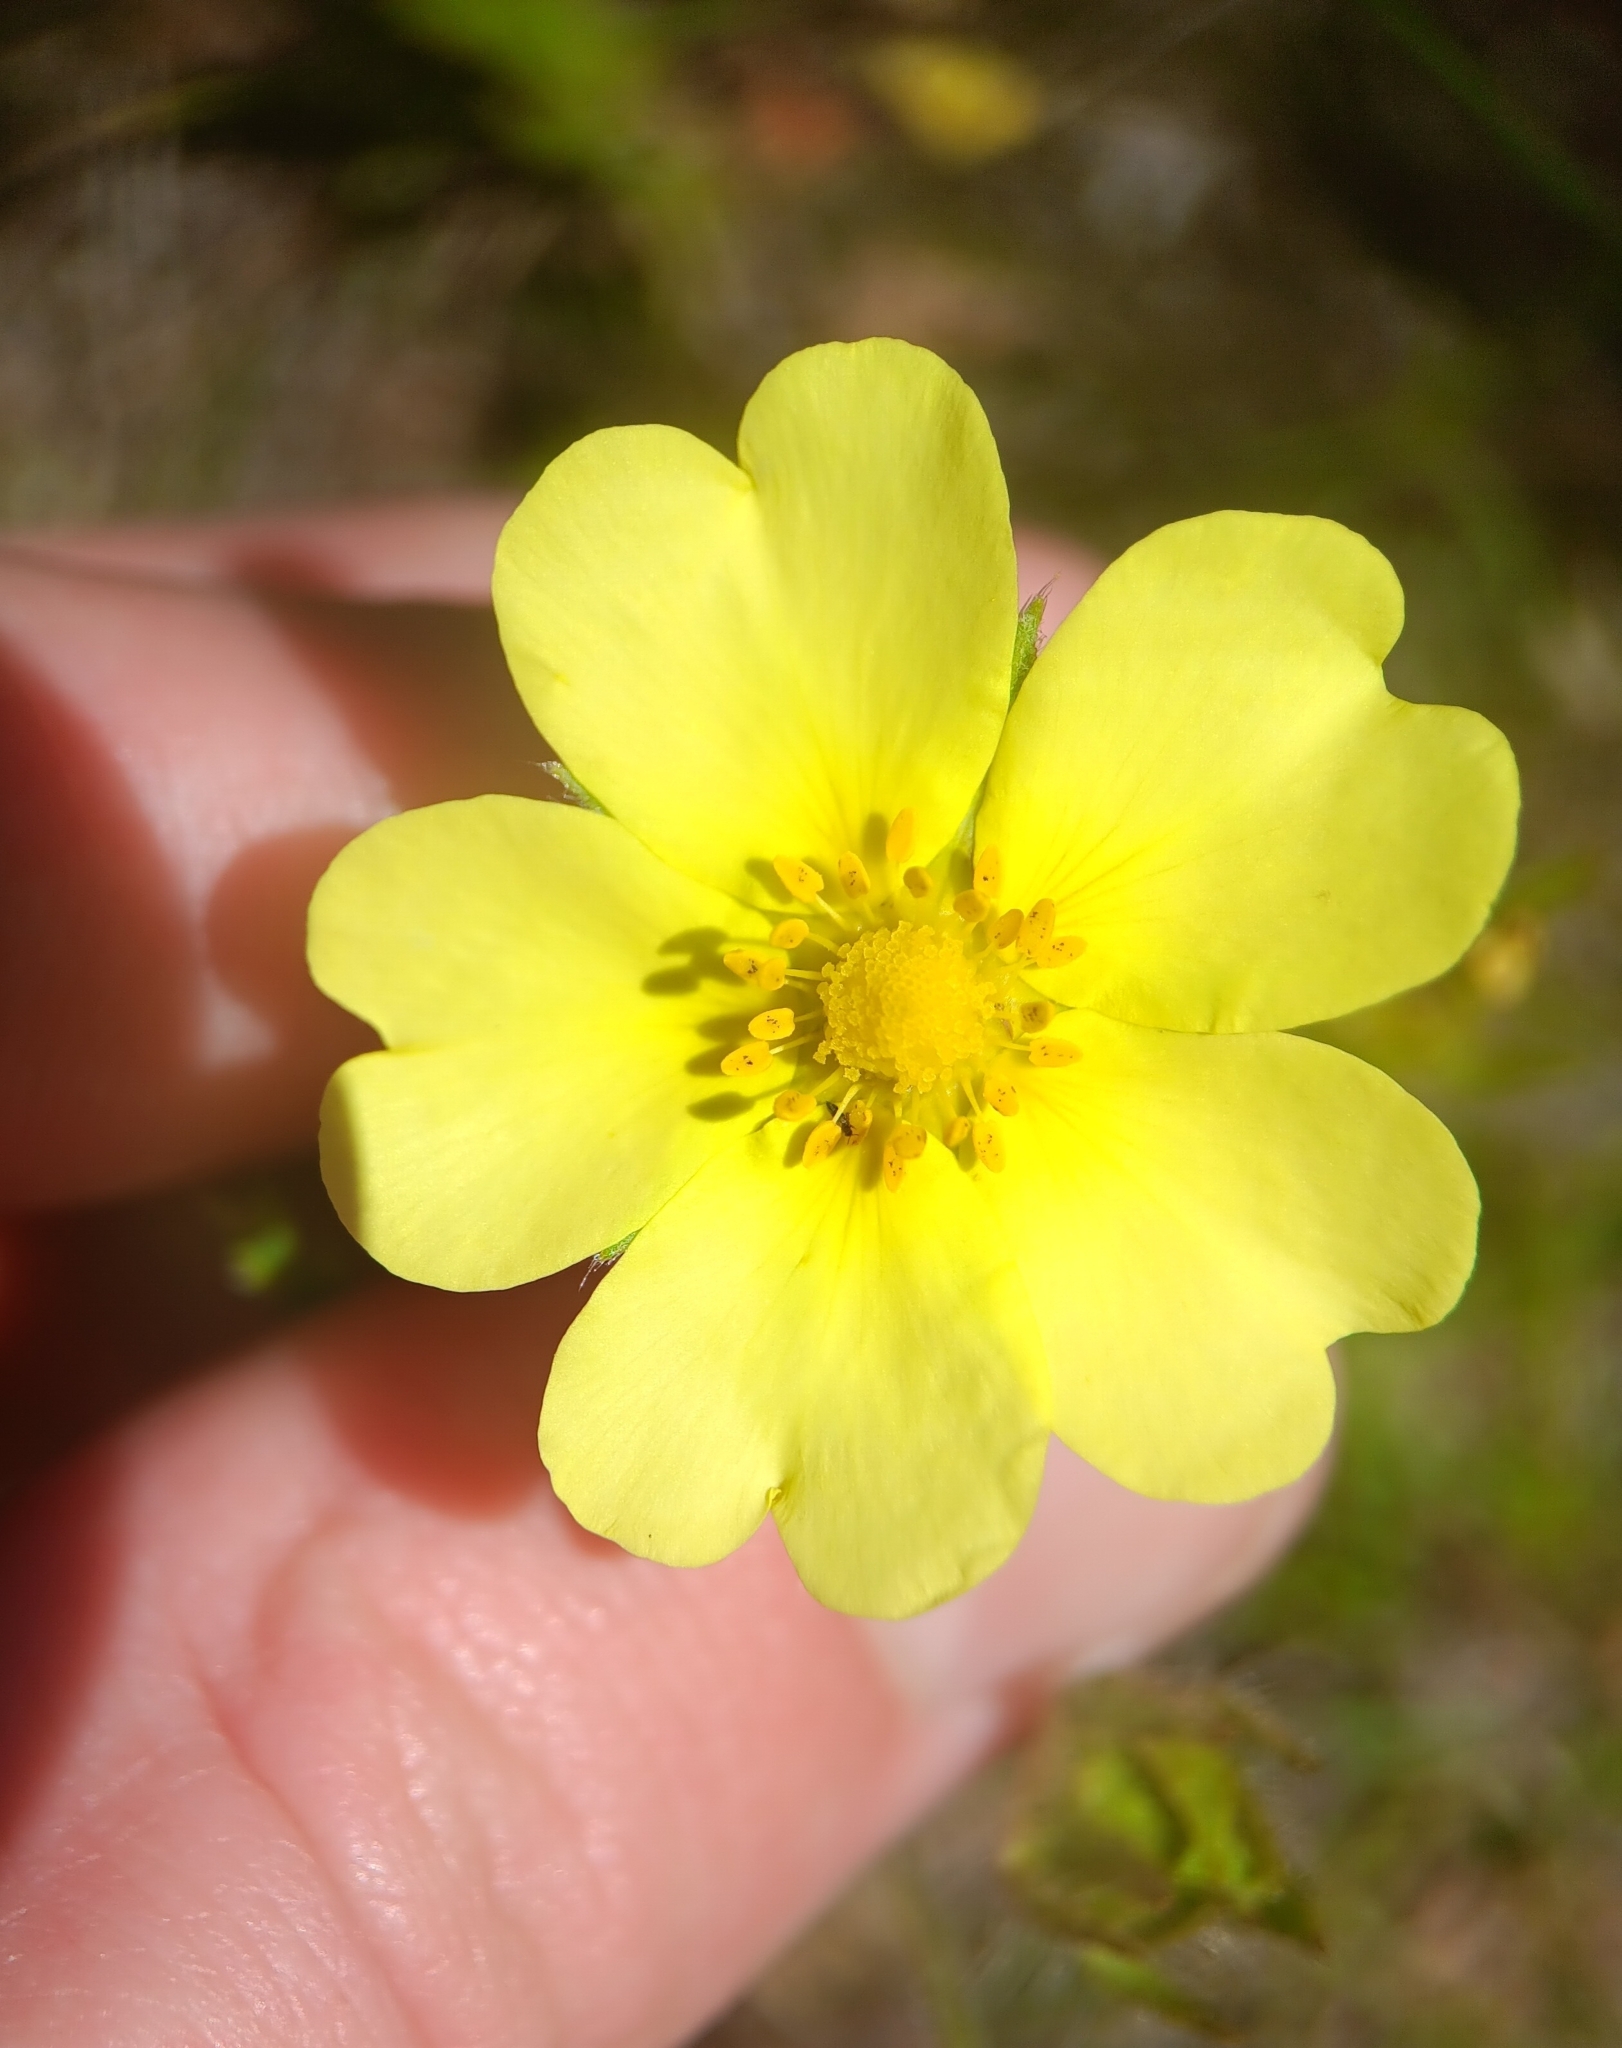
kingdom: Plantae
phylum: Tracheophyta
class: Magnoliopsida
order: Rosales
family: Rosaceae
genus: Potentilla
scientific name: Potentilla recta
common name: Sulphur cinquefoil
